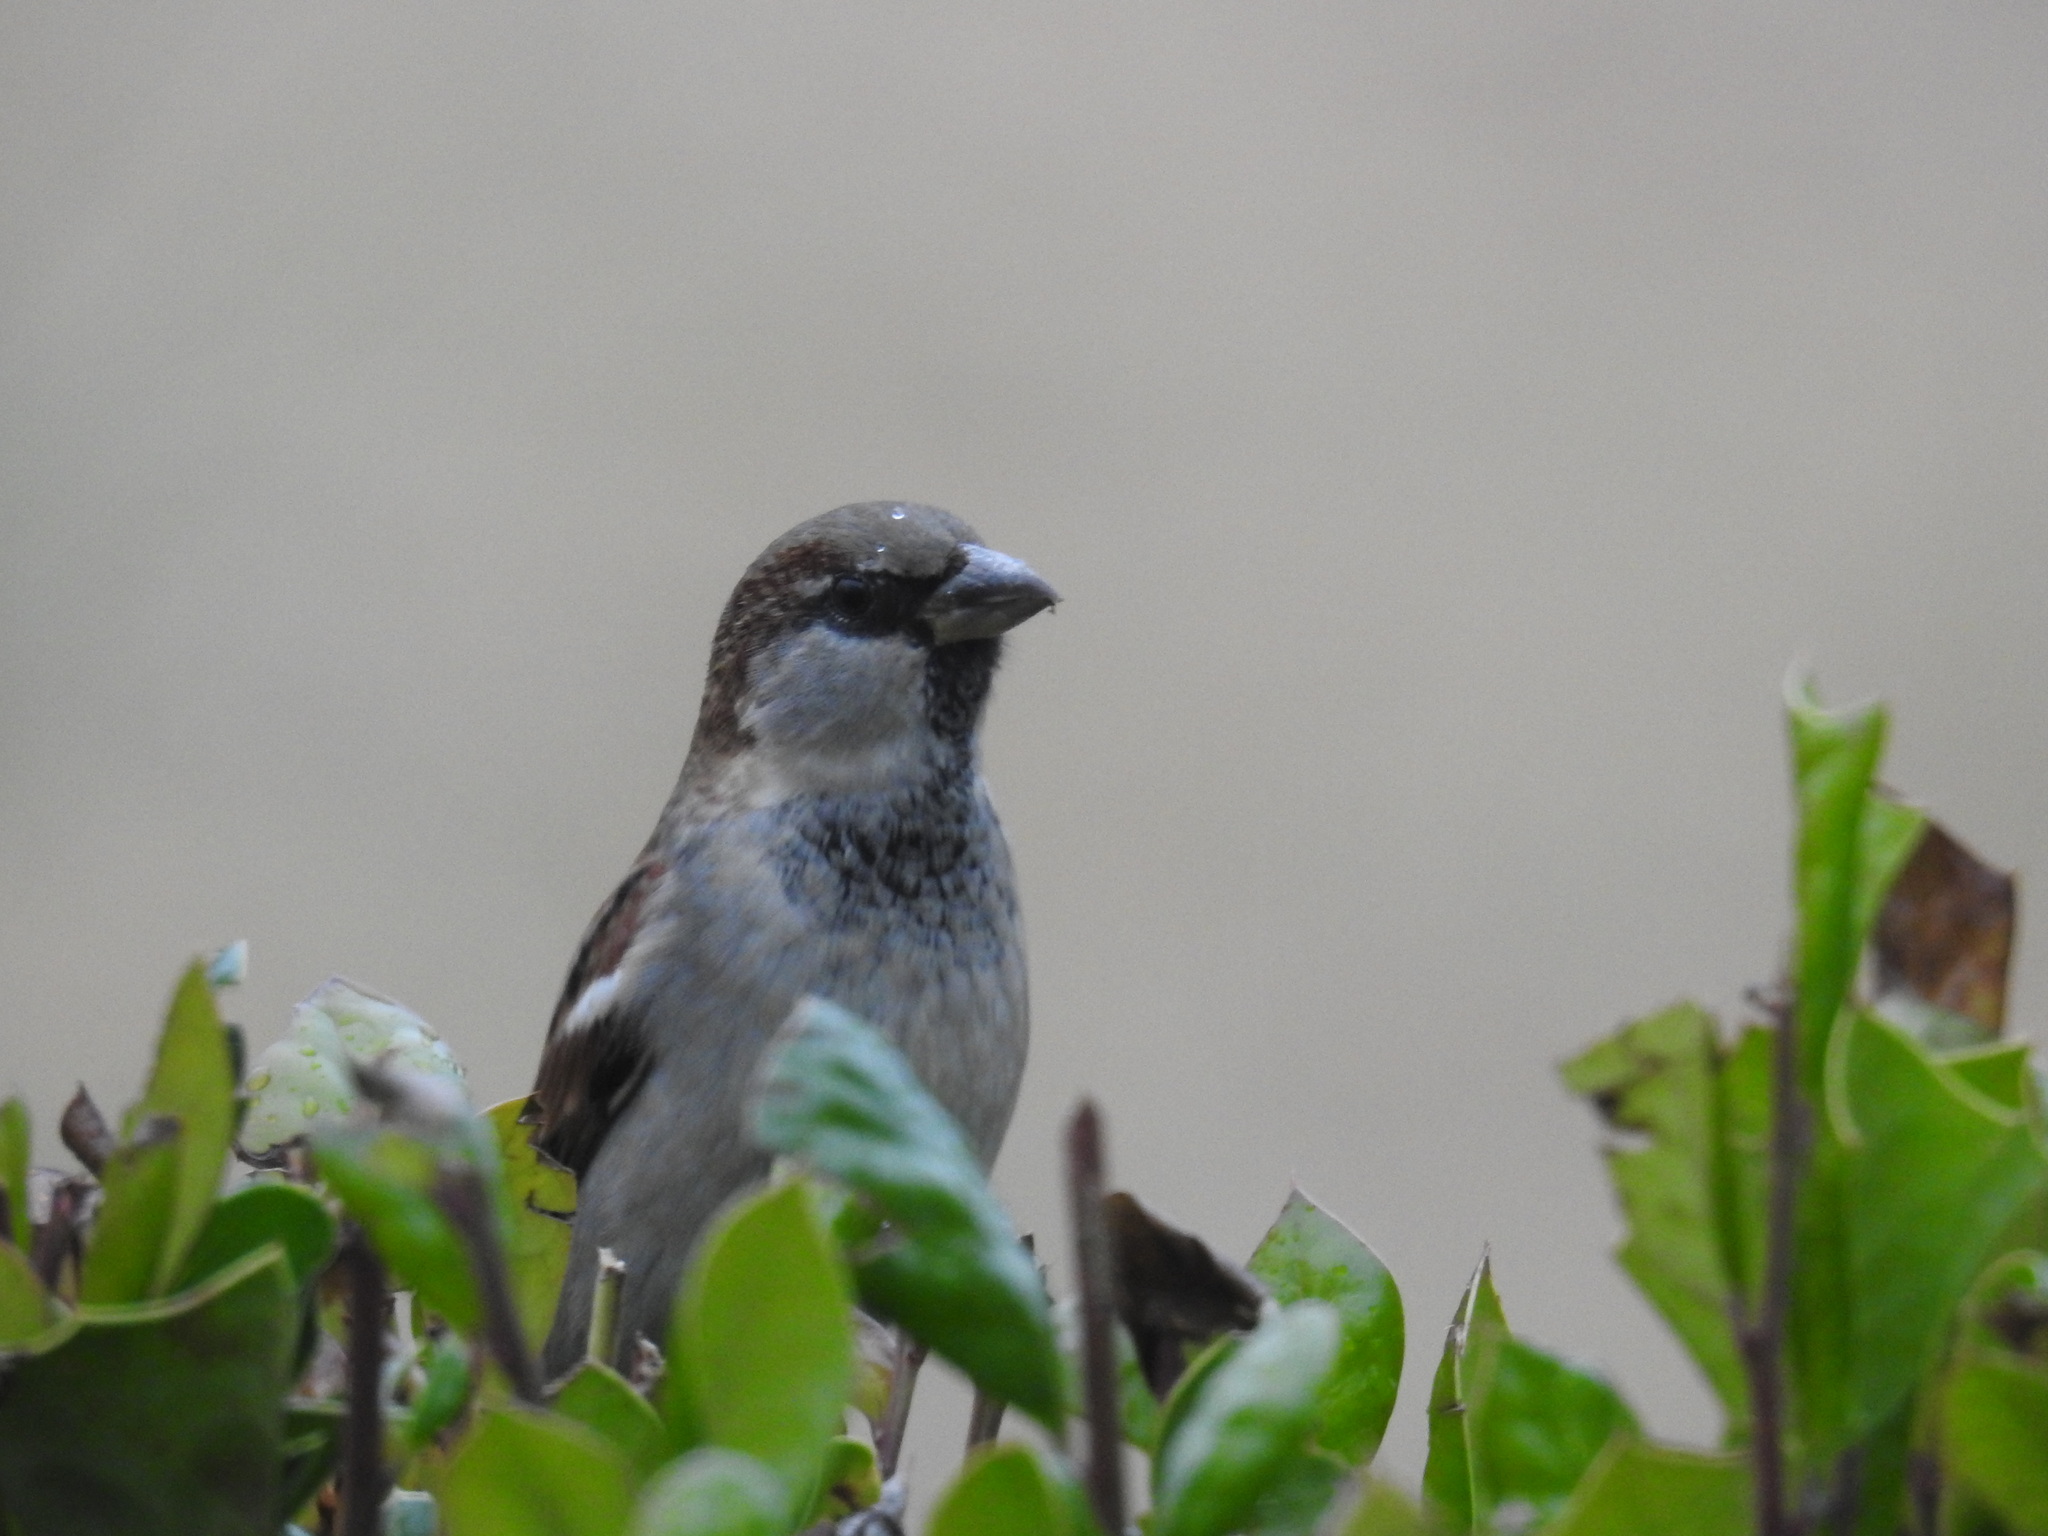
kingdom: Animalia
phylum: Chordata
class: Aves
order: Passeriformes
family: Passeridae
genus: Passer
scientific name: Passer domesticus
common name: House sparrow
